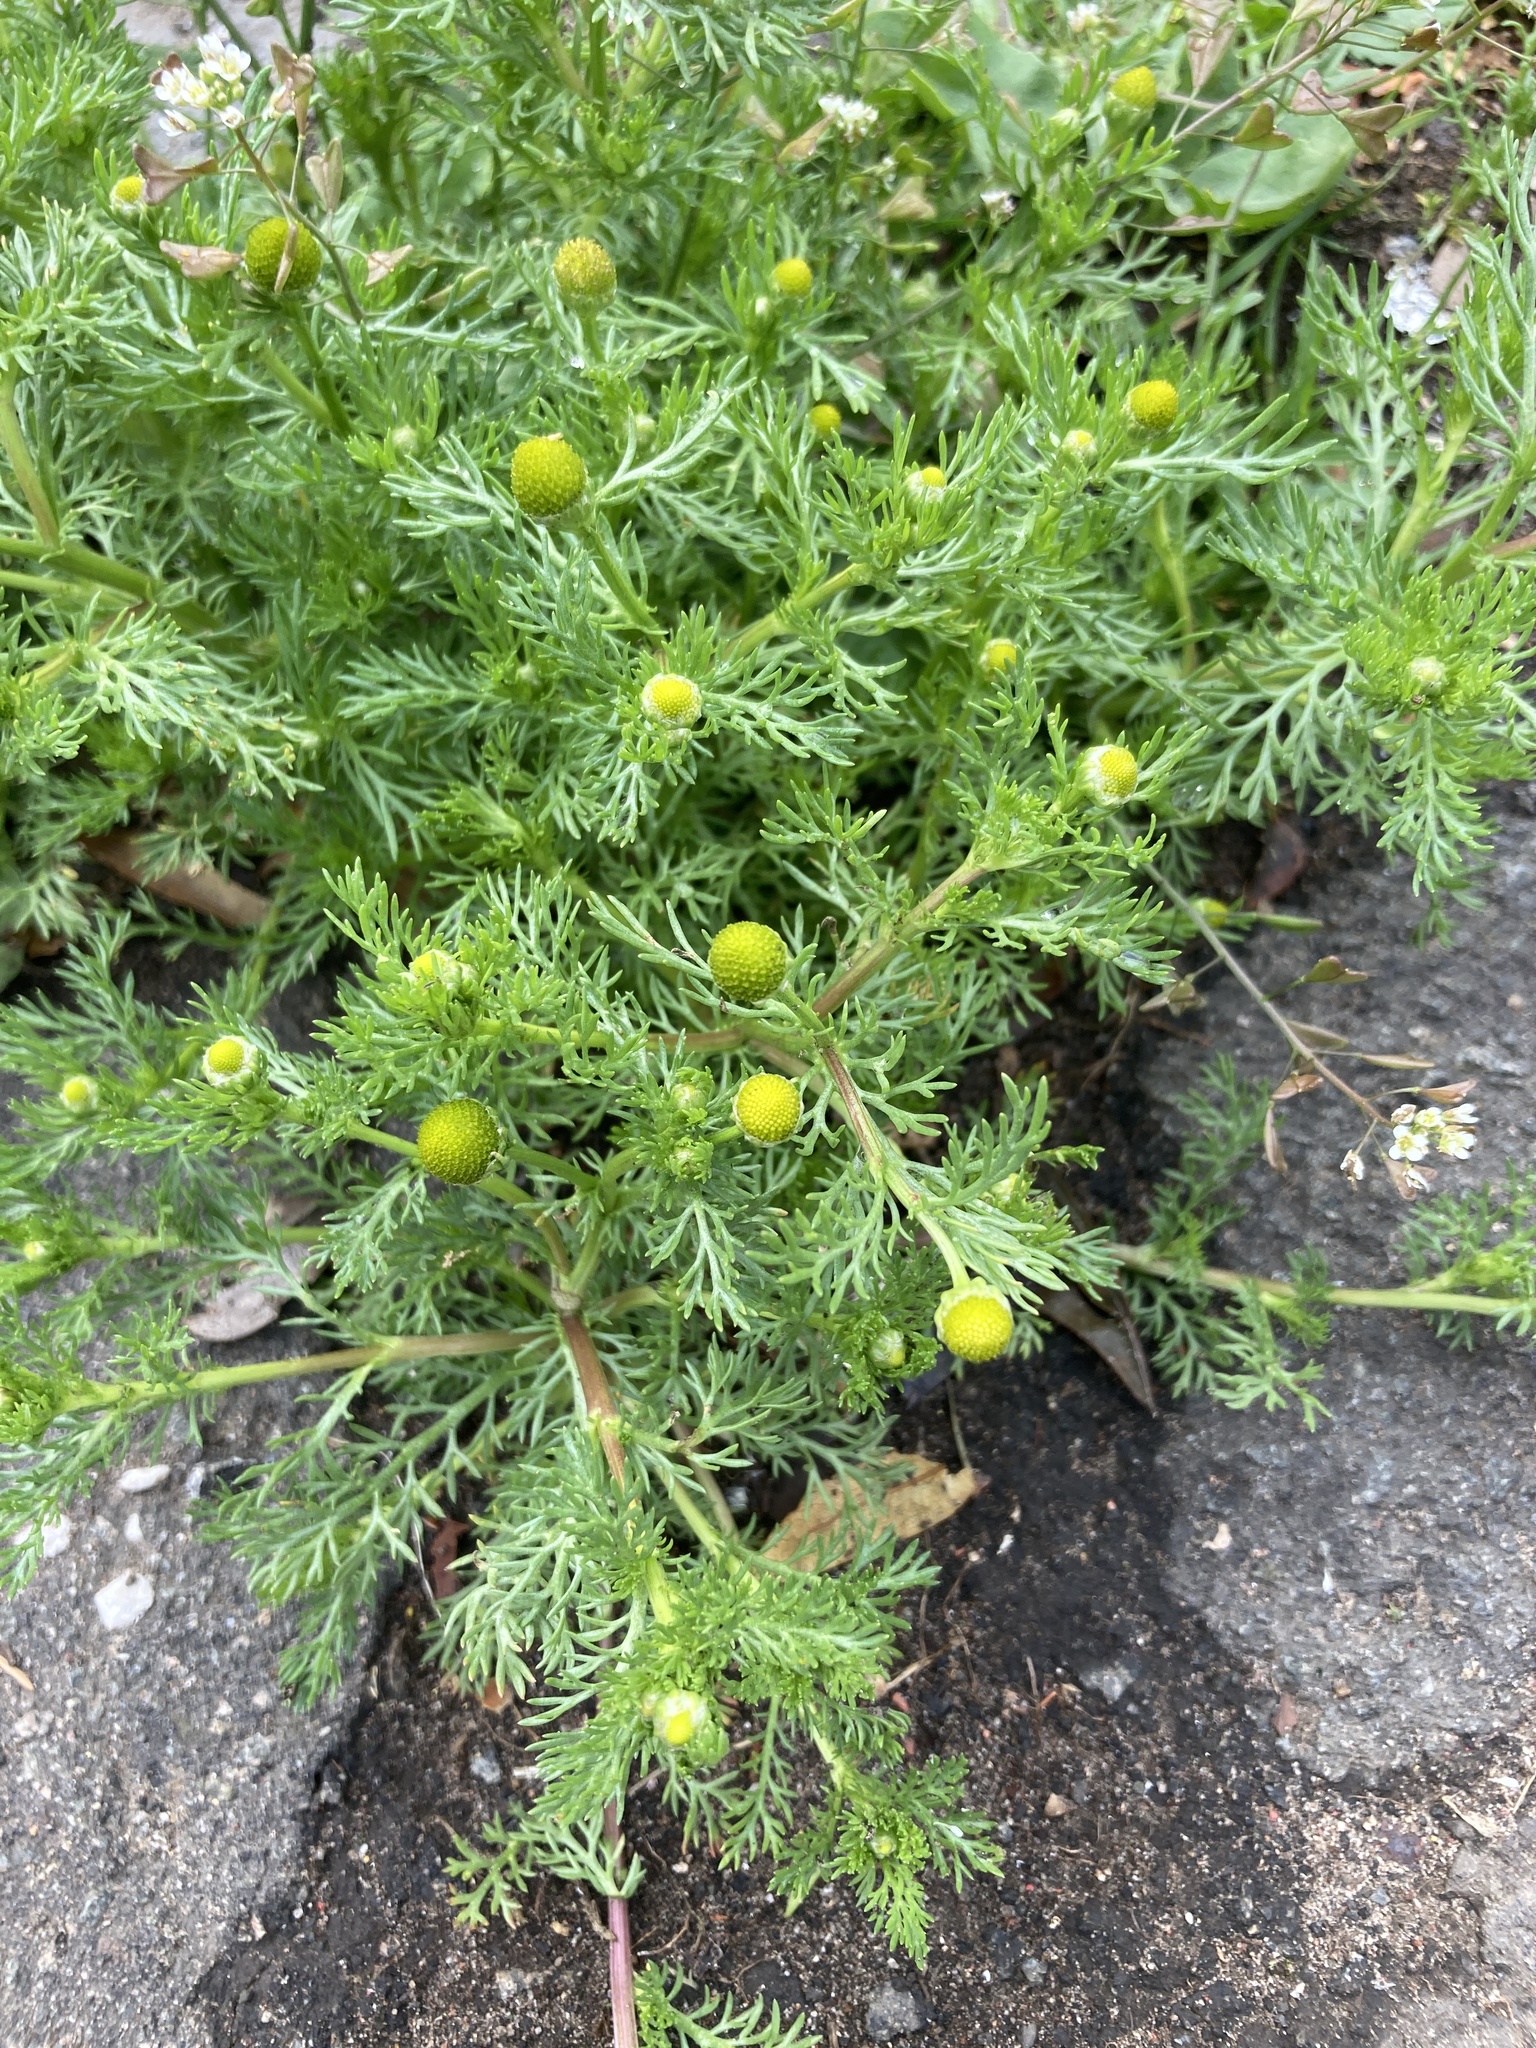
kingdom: Plantae
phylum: Tracheophyta
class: Magnoliopsida
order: Asterales
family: Asteraceae
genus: Matricaria
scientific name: Matricaria discoidea
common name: Disc mayweed
